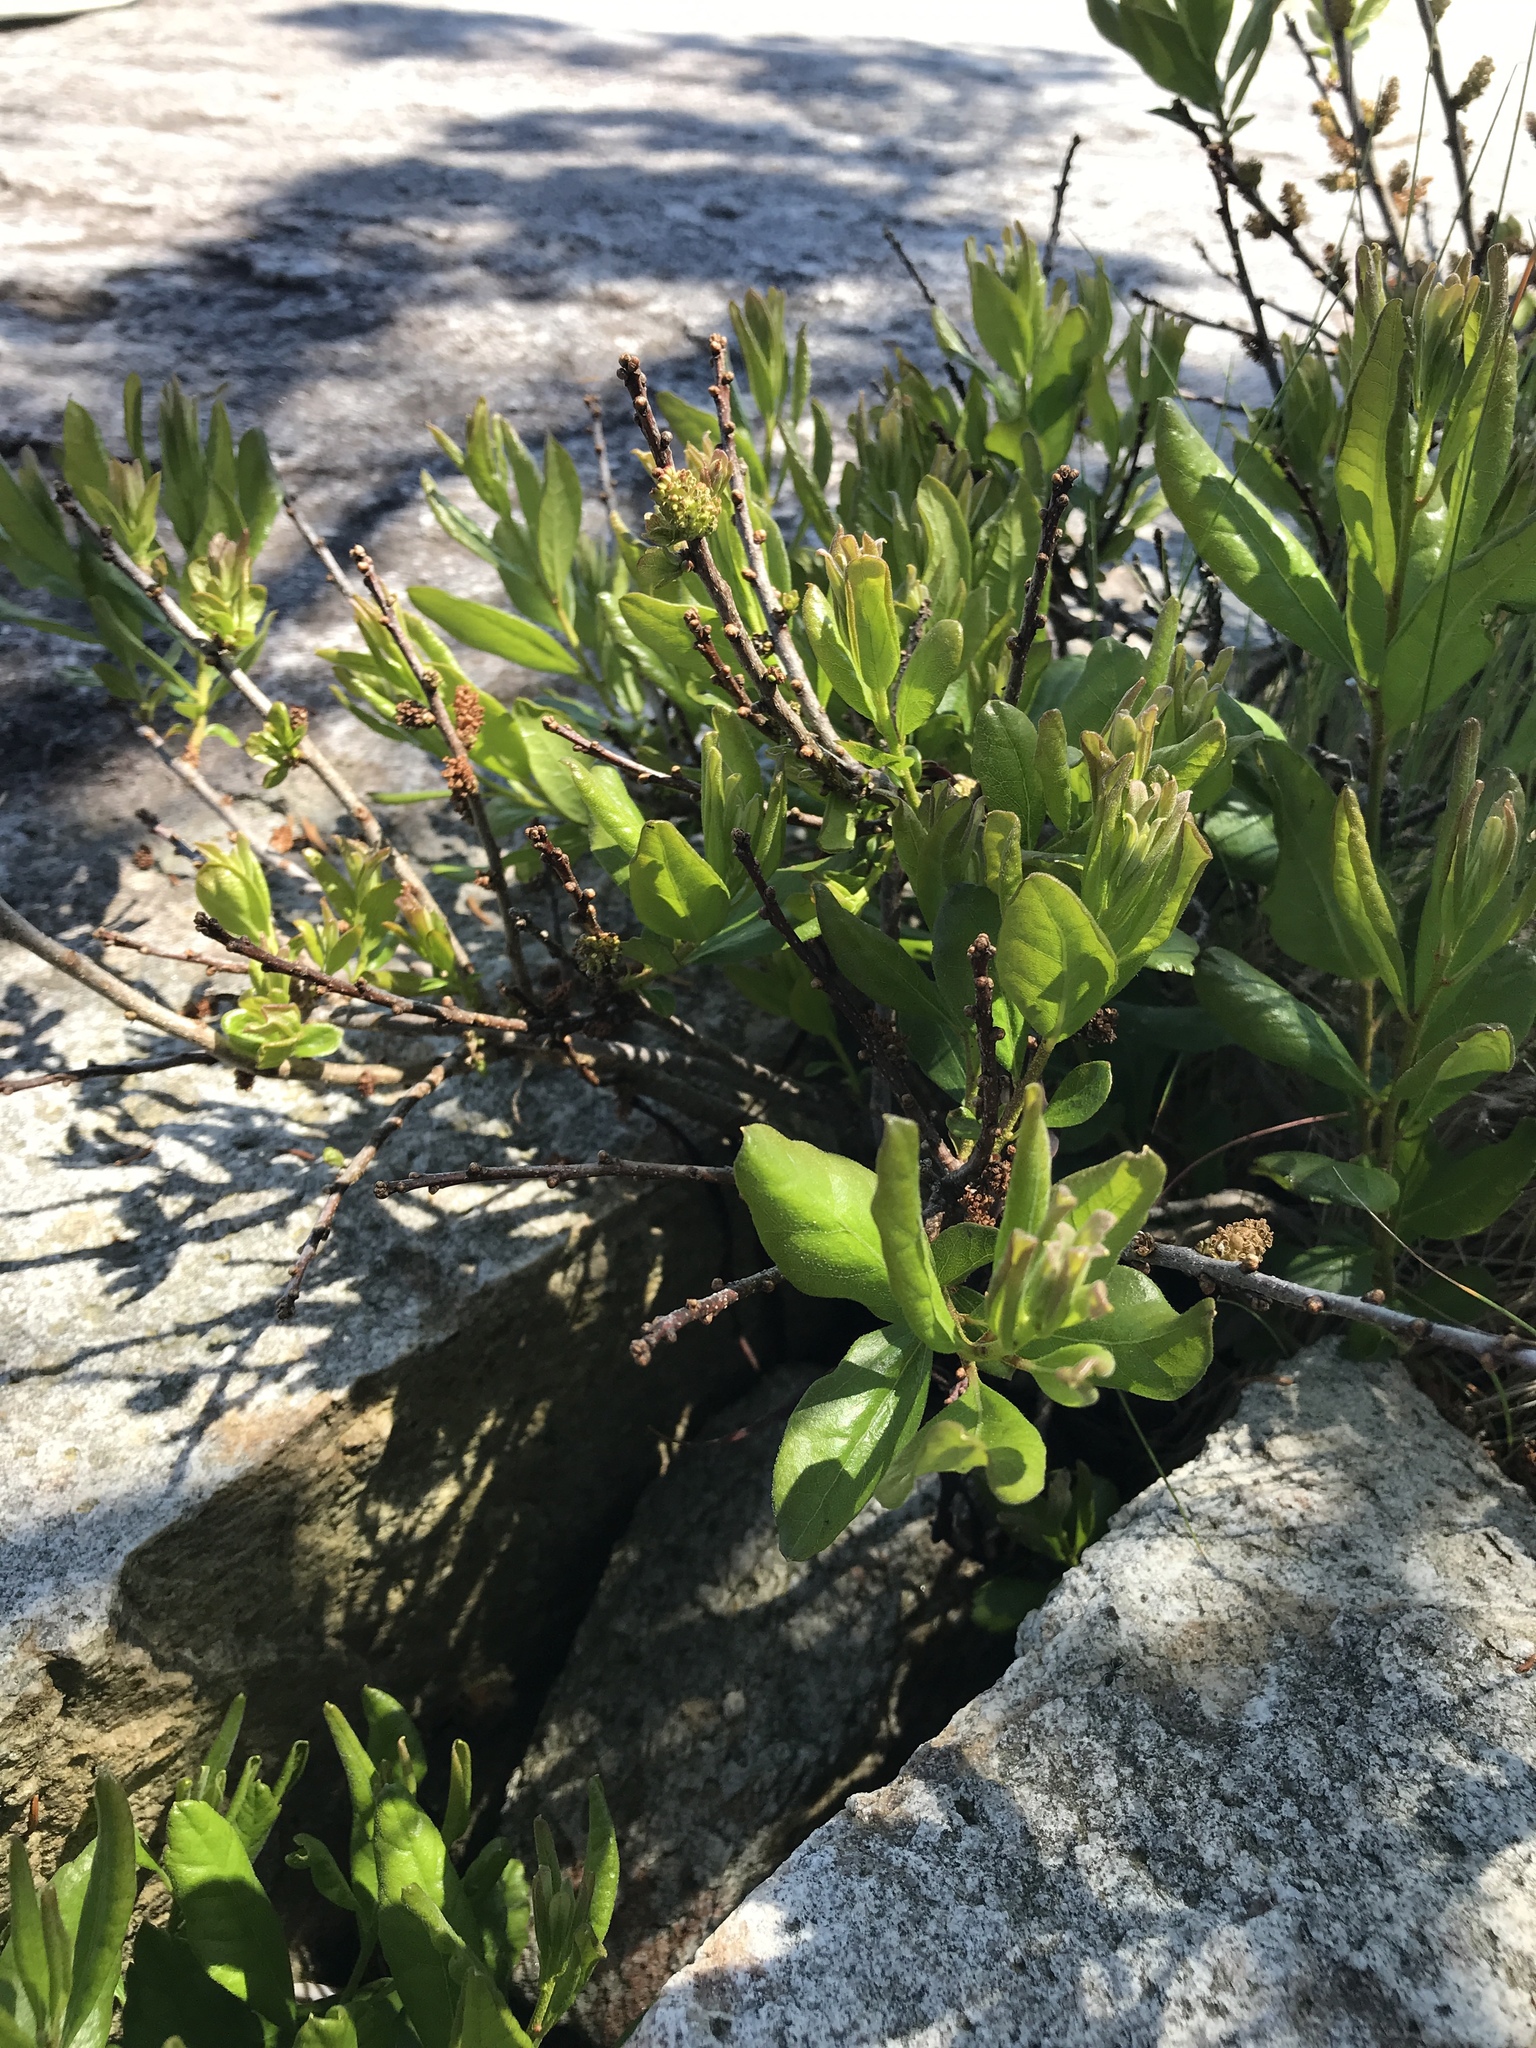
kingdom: Plantae
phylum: Tracheophyta
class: Magnoliopsida
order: Fagales
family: Myricaceae
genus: Morella
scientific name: Morella pensylvanica
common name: Northern bayberry
